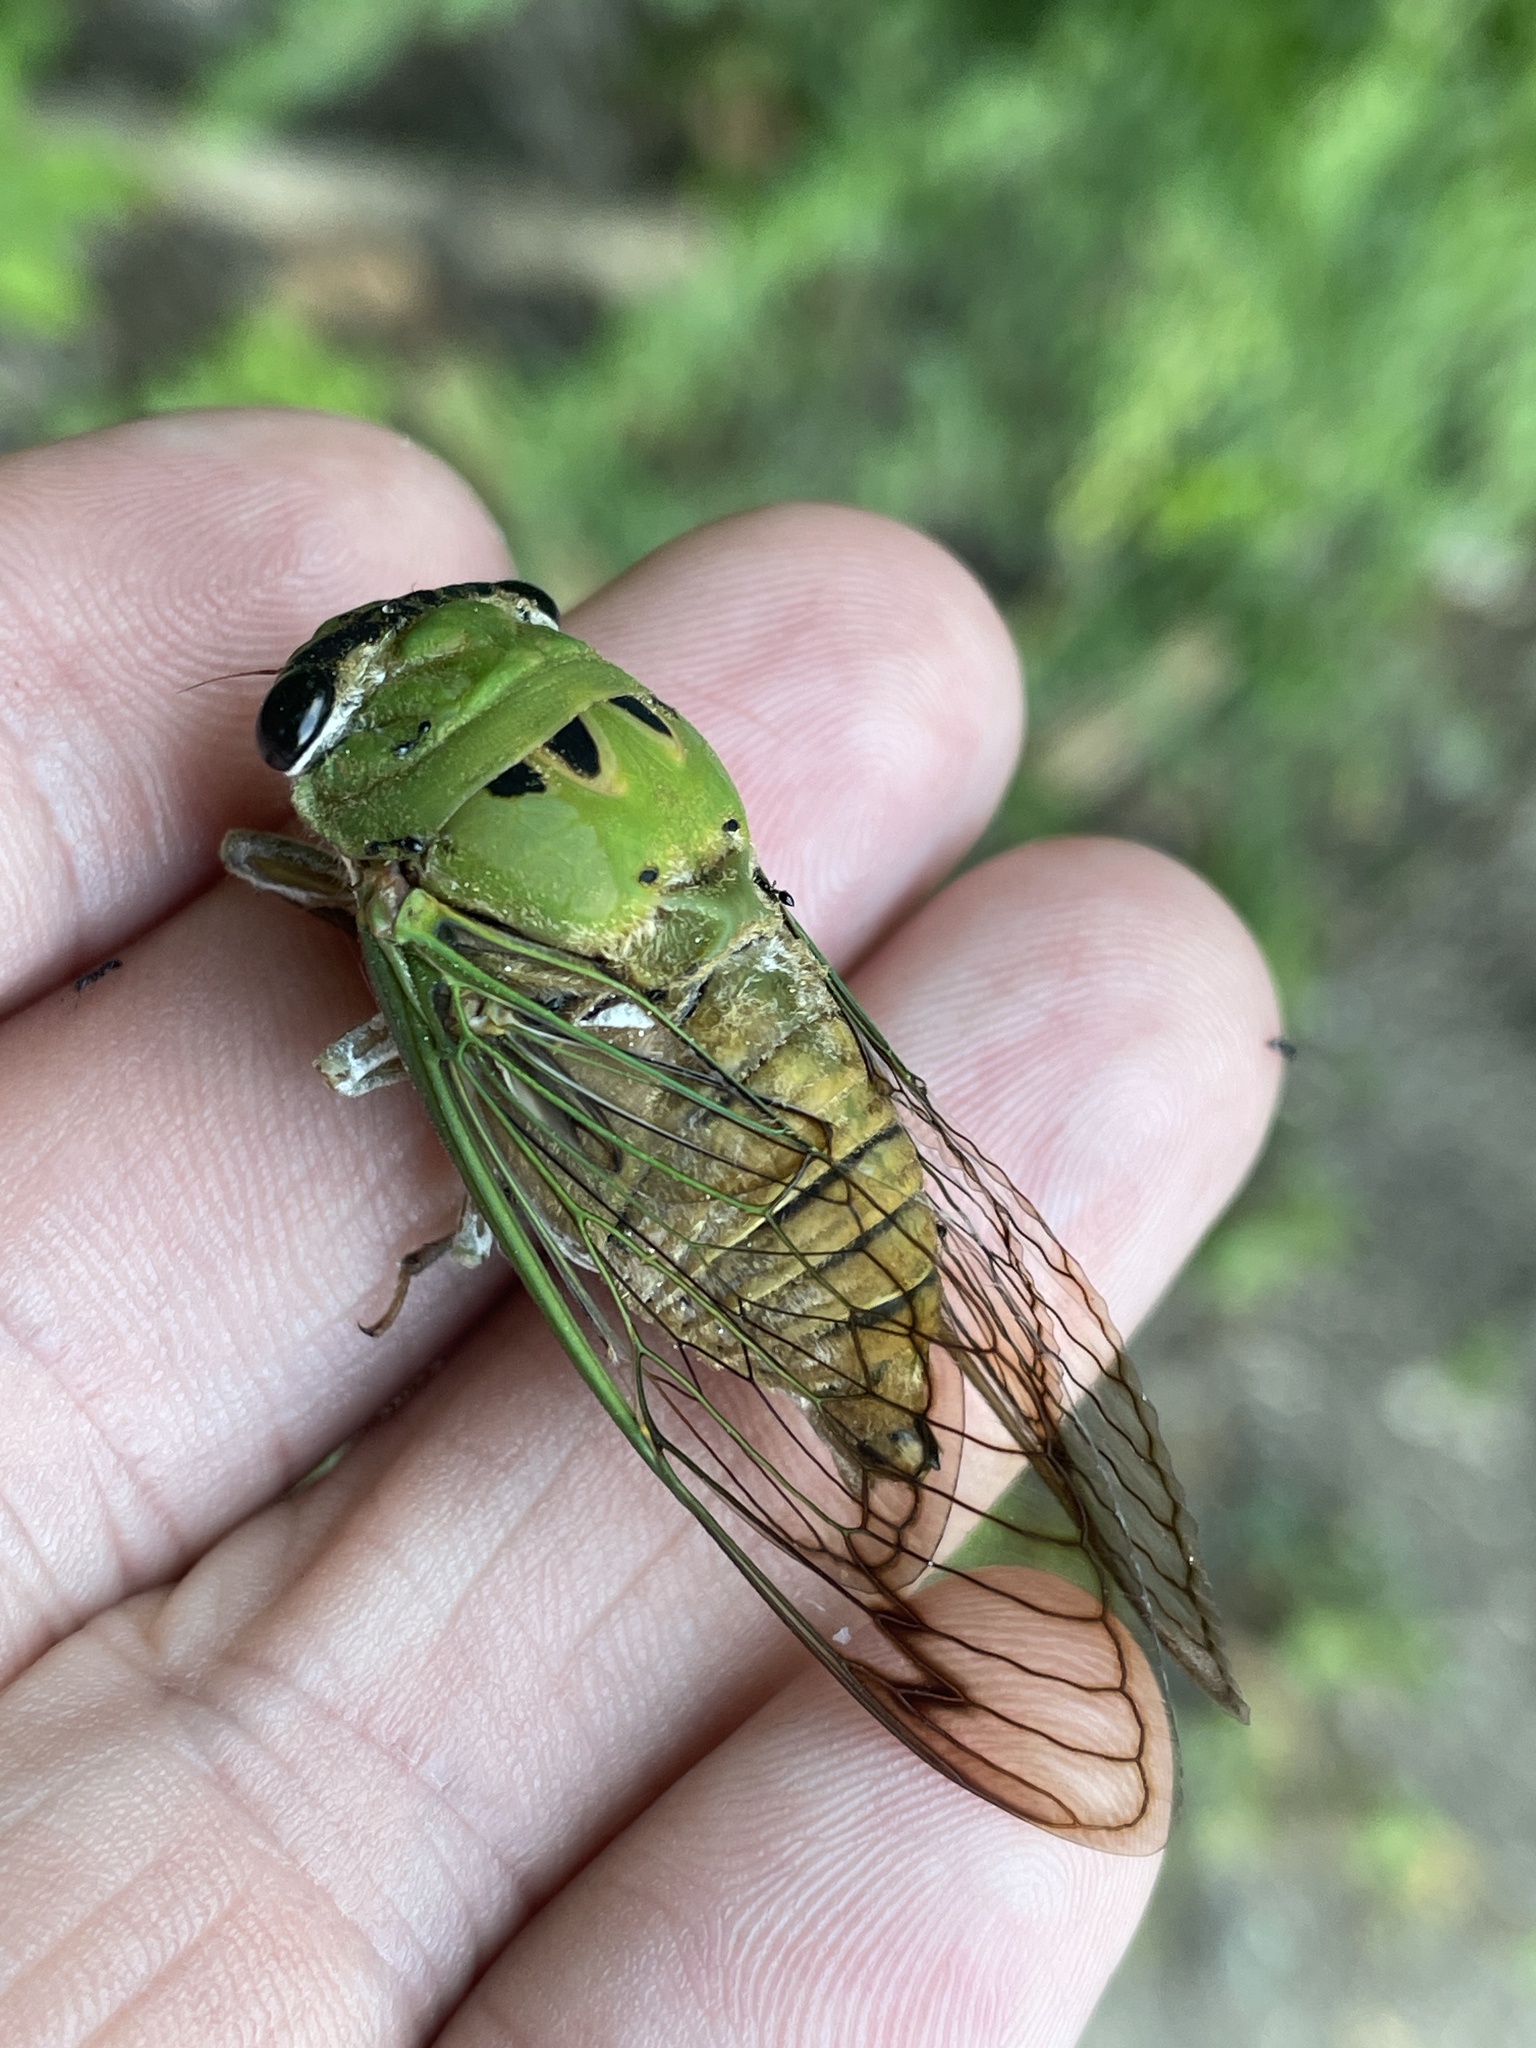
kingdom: Animalia
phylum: Arthropoda
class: Insecta
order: Hemiptera
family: Cicadidae
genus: Neotibicen
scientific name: Neotibicen superbus
